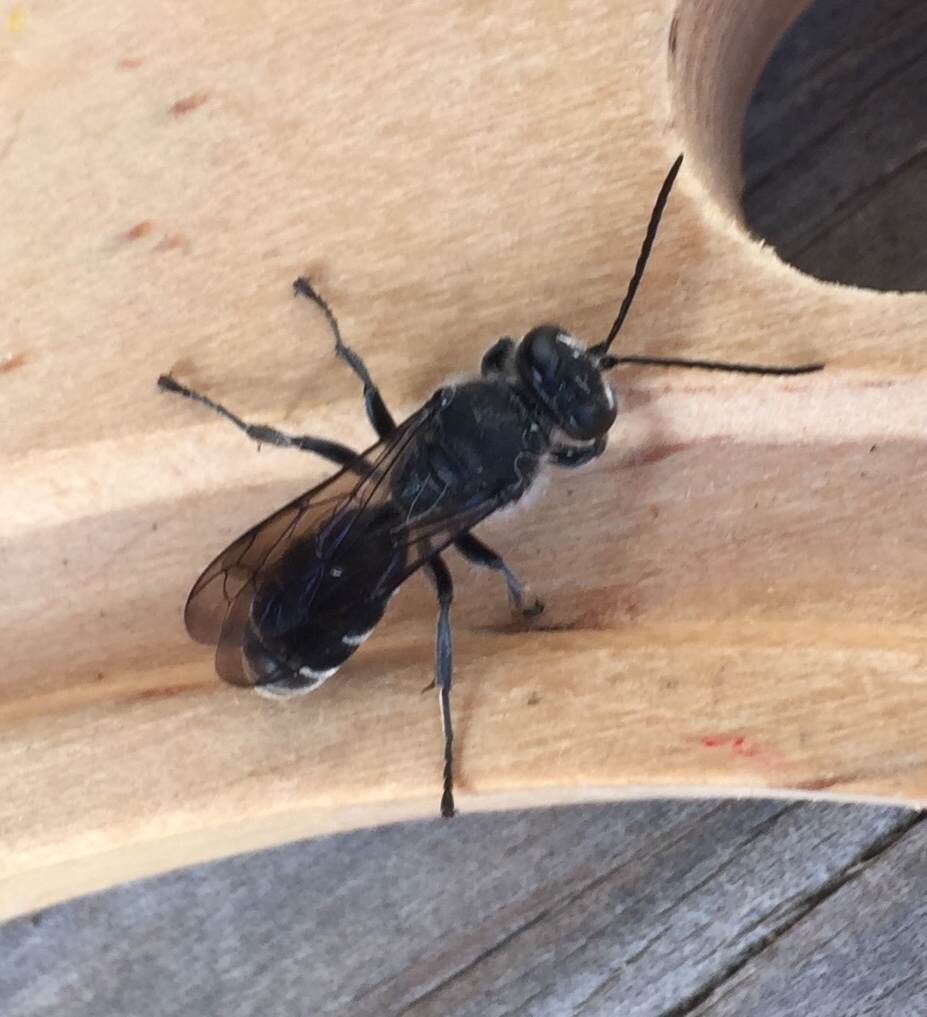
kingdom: Animalia
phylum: Arthropoda
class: Insecta
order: Hymenoptera
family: Crabronidae
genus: Pison
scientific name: Pison spinolae
